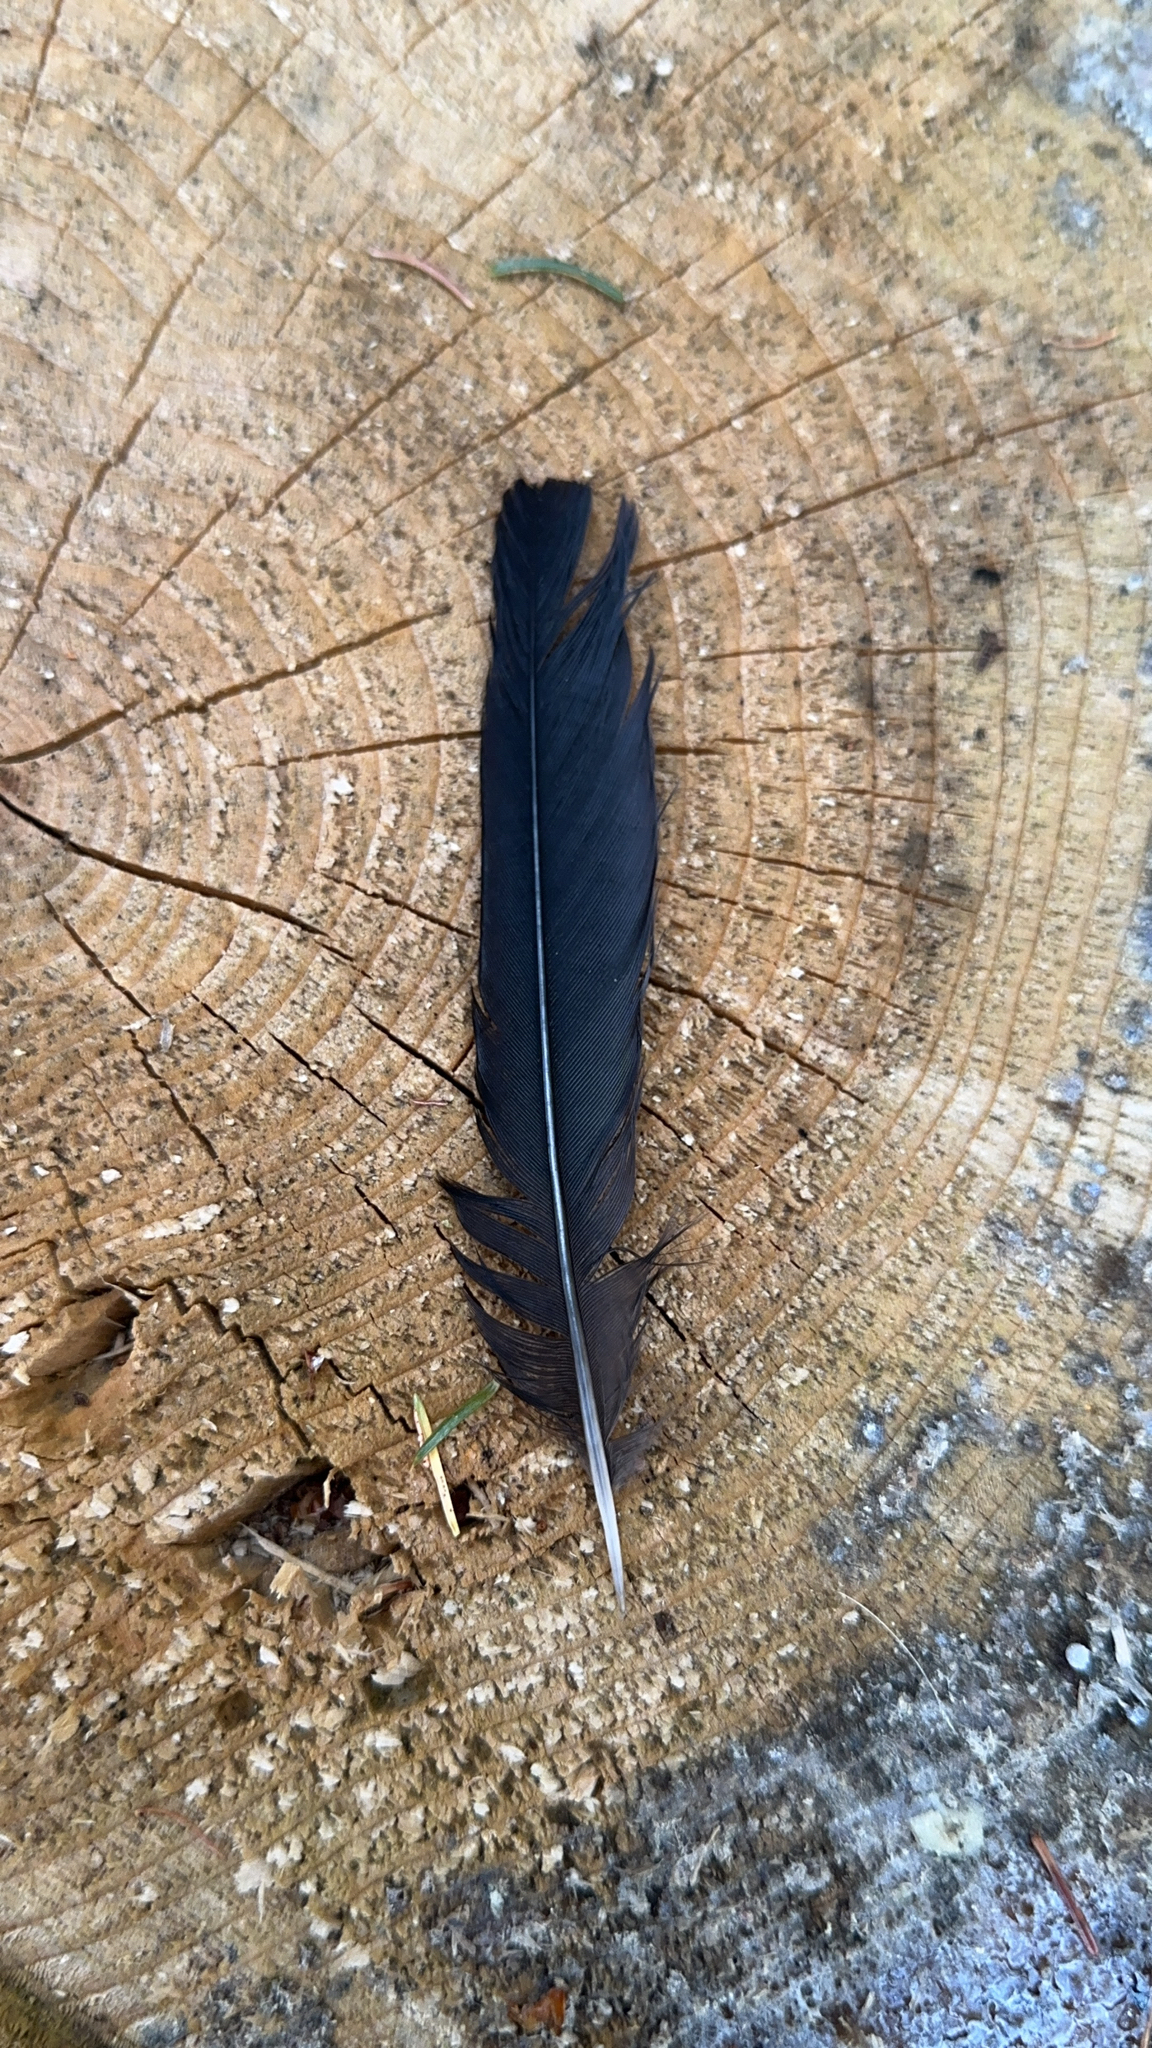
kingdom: Animalia
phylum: Chordata
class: Aves
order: Passeriformes
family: Turdidae
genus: Turdus
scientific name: Turdus merula
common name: Common blackbird
